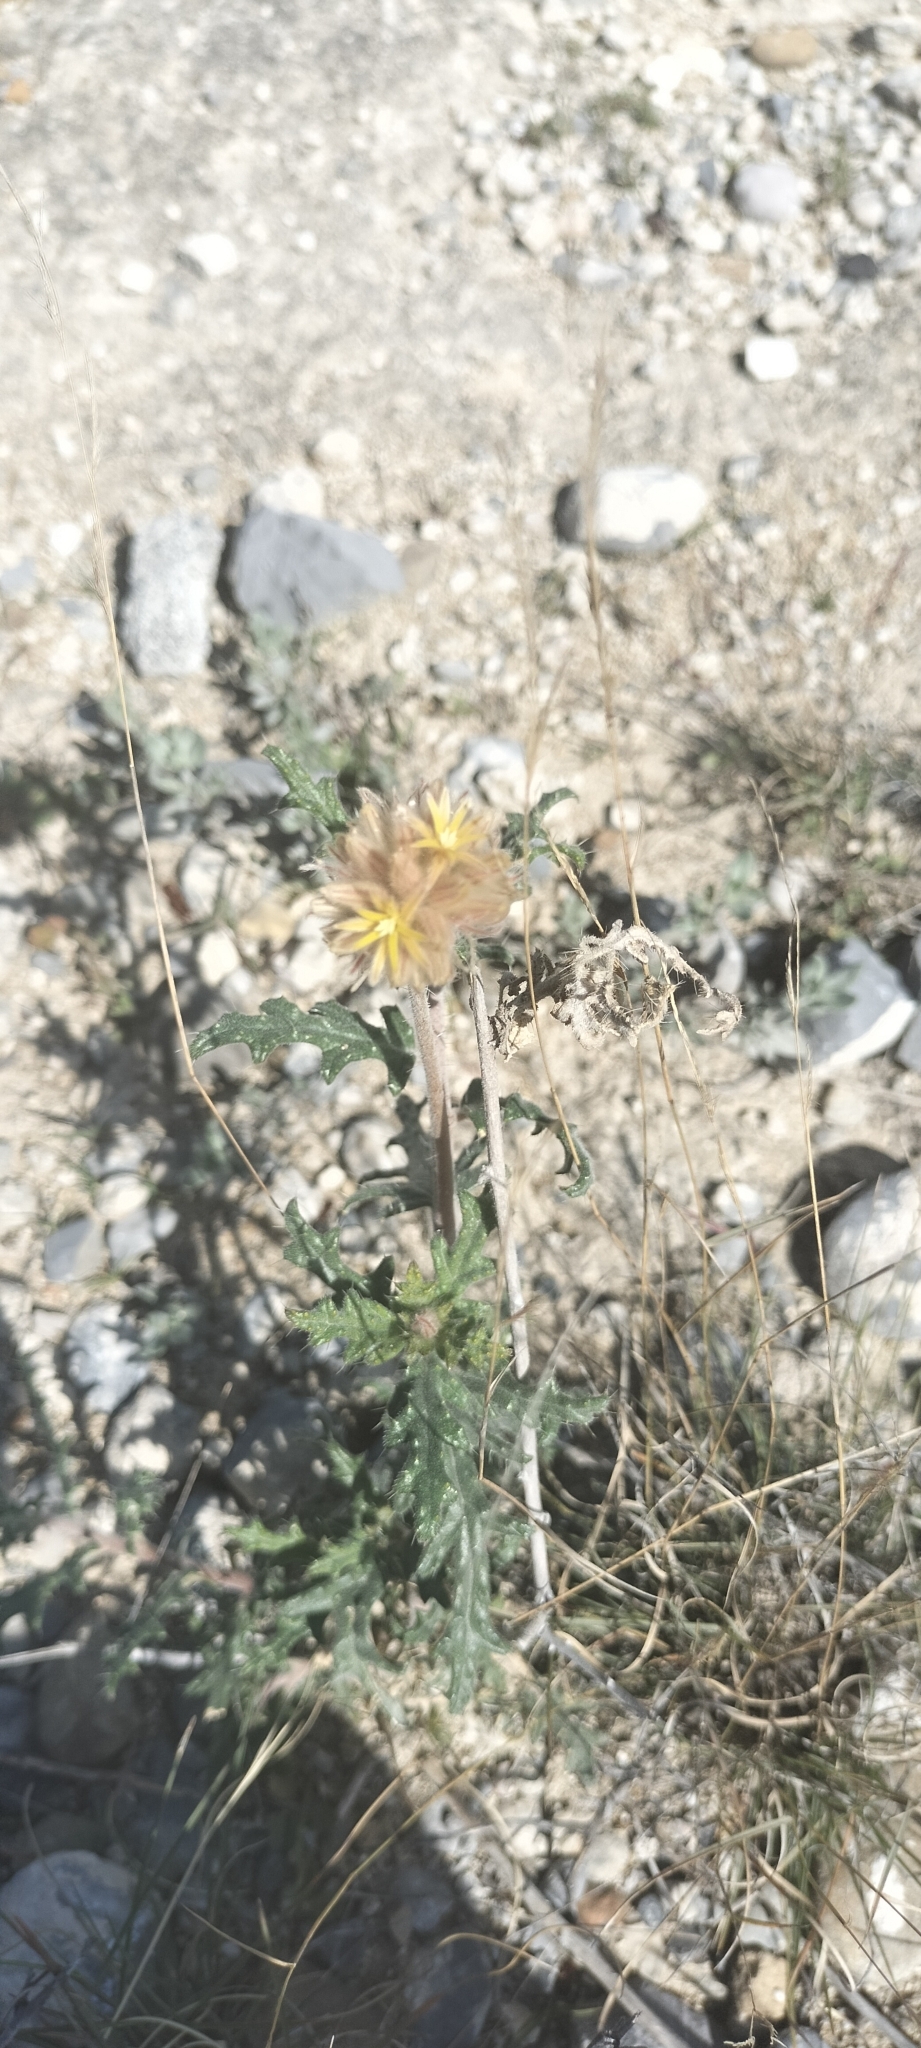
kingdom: Plantae
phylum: Tracheophyta
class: Magnoliopsida
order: Cornales
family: Loasaceae
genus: Cevallia
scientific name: Cevallia sinuata
